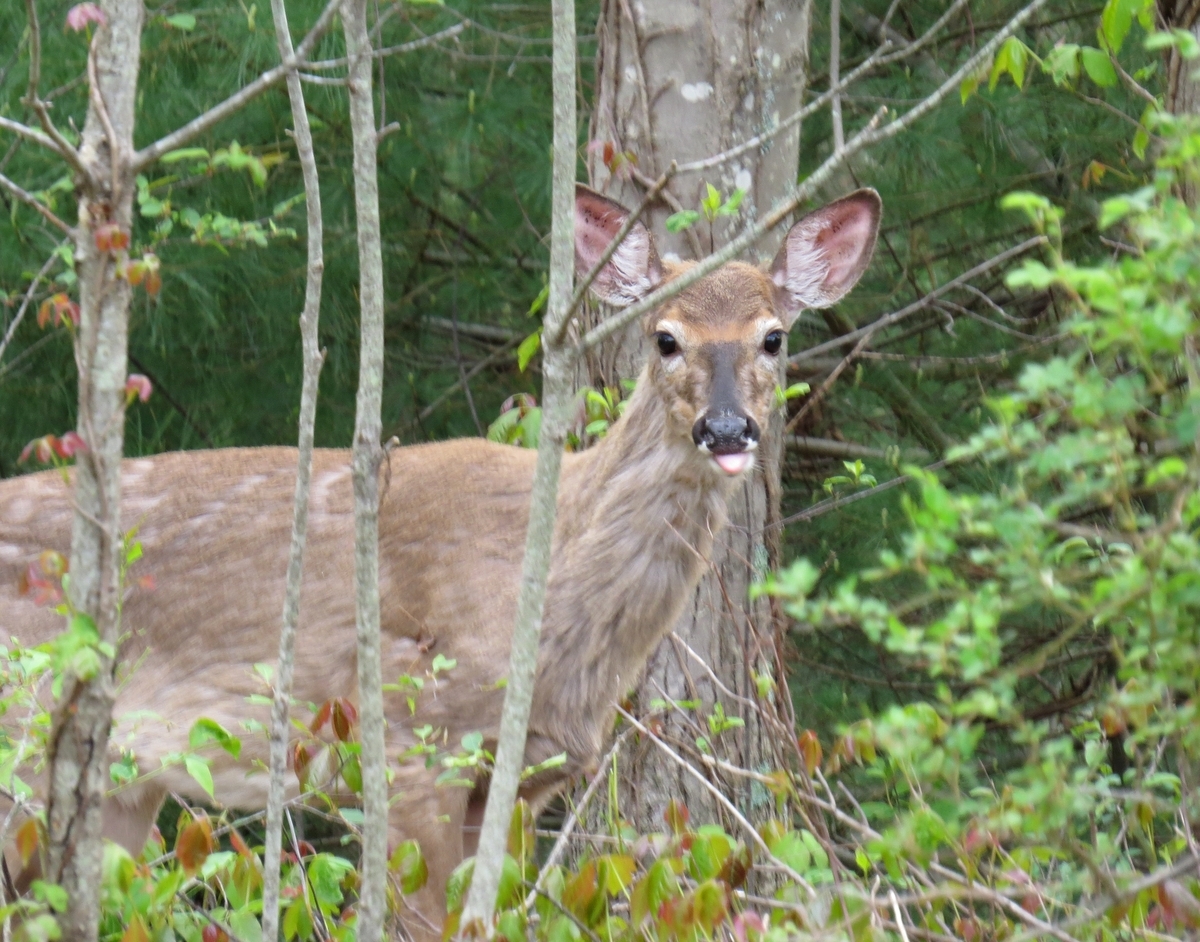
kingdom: Animalia
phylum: Chordata
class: Mammalia
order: Artiodactyla
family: Cervidae
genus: Odocoileus
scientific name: Odocoileus virginianus
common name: White-tailed deer
